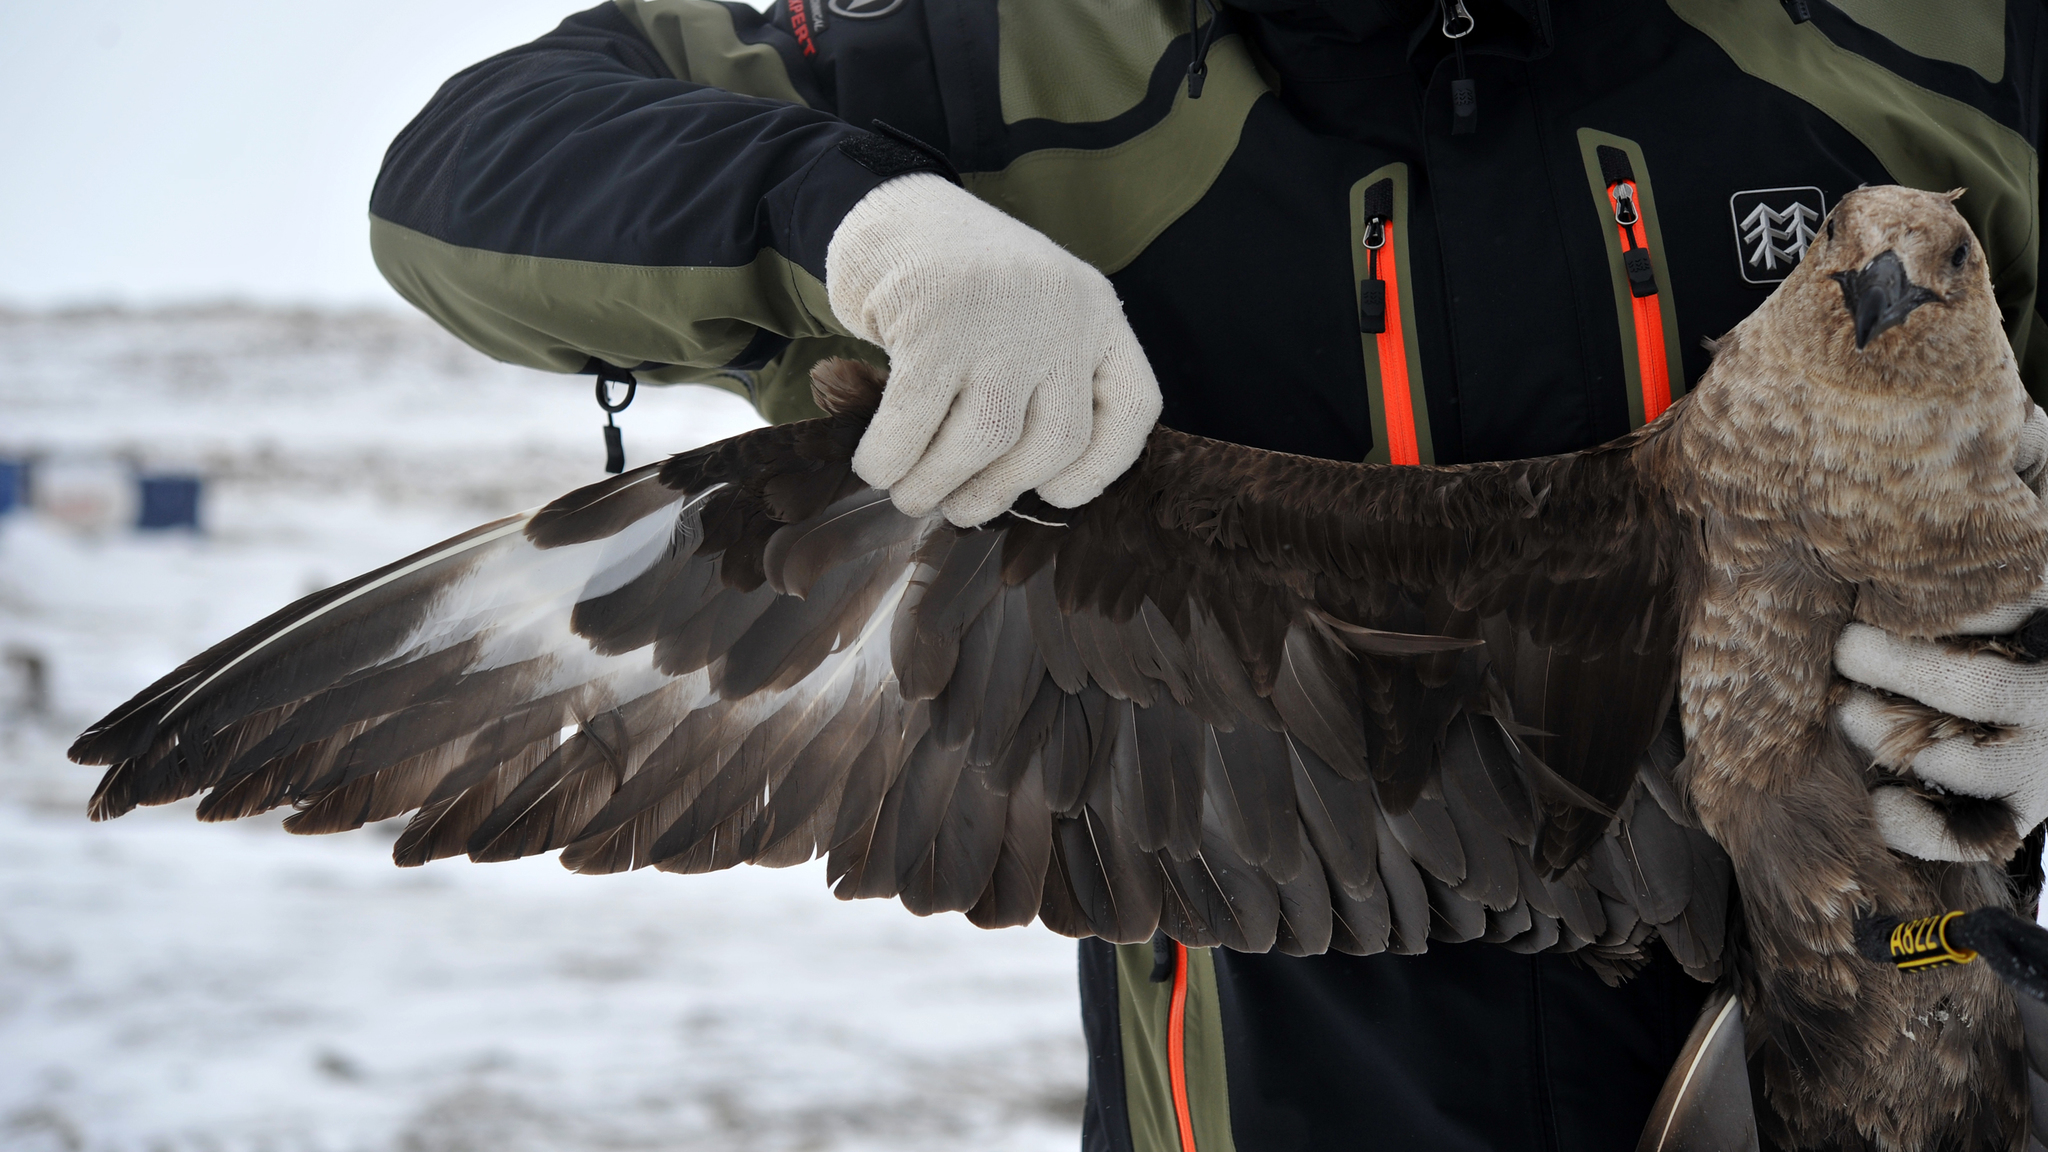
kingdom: Animalia
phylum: Chordata
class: Aves
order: Charadriiformes
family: Stercorariidae
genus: Stercorarius
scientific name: Stercorarius maccormicki
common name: South polar skua
